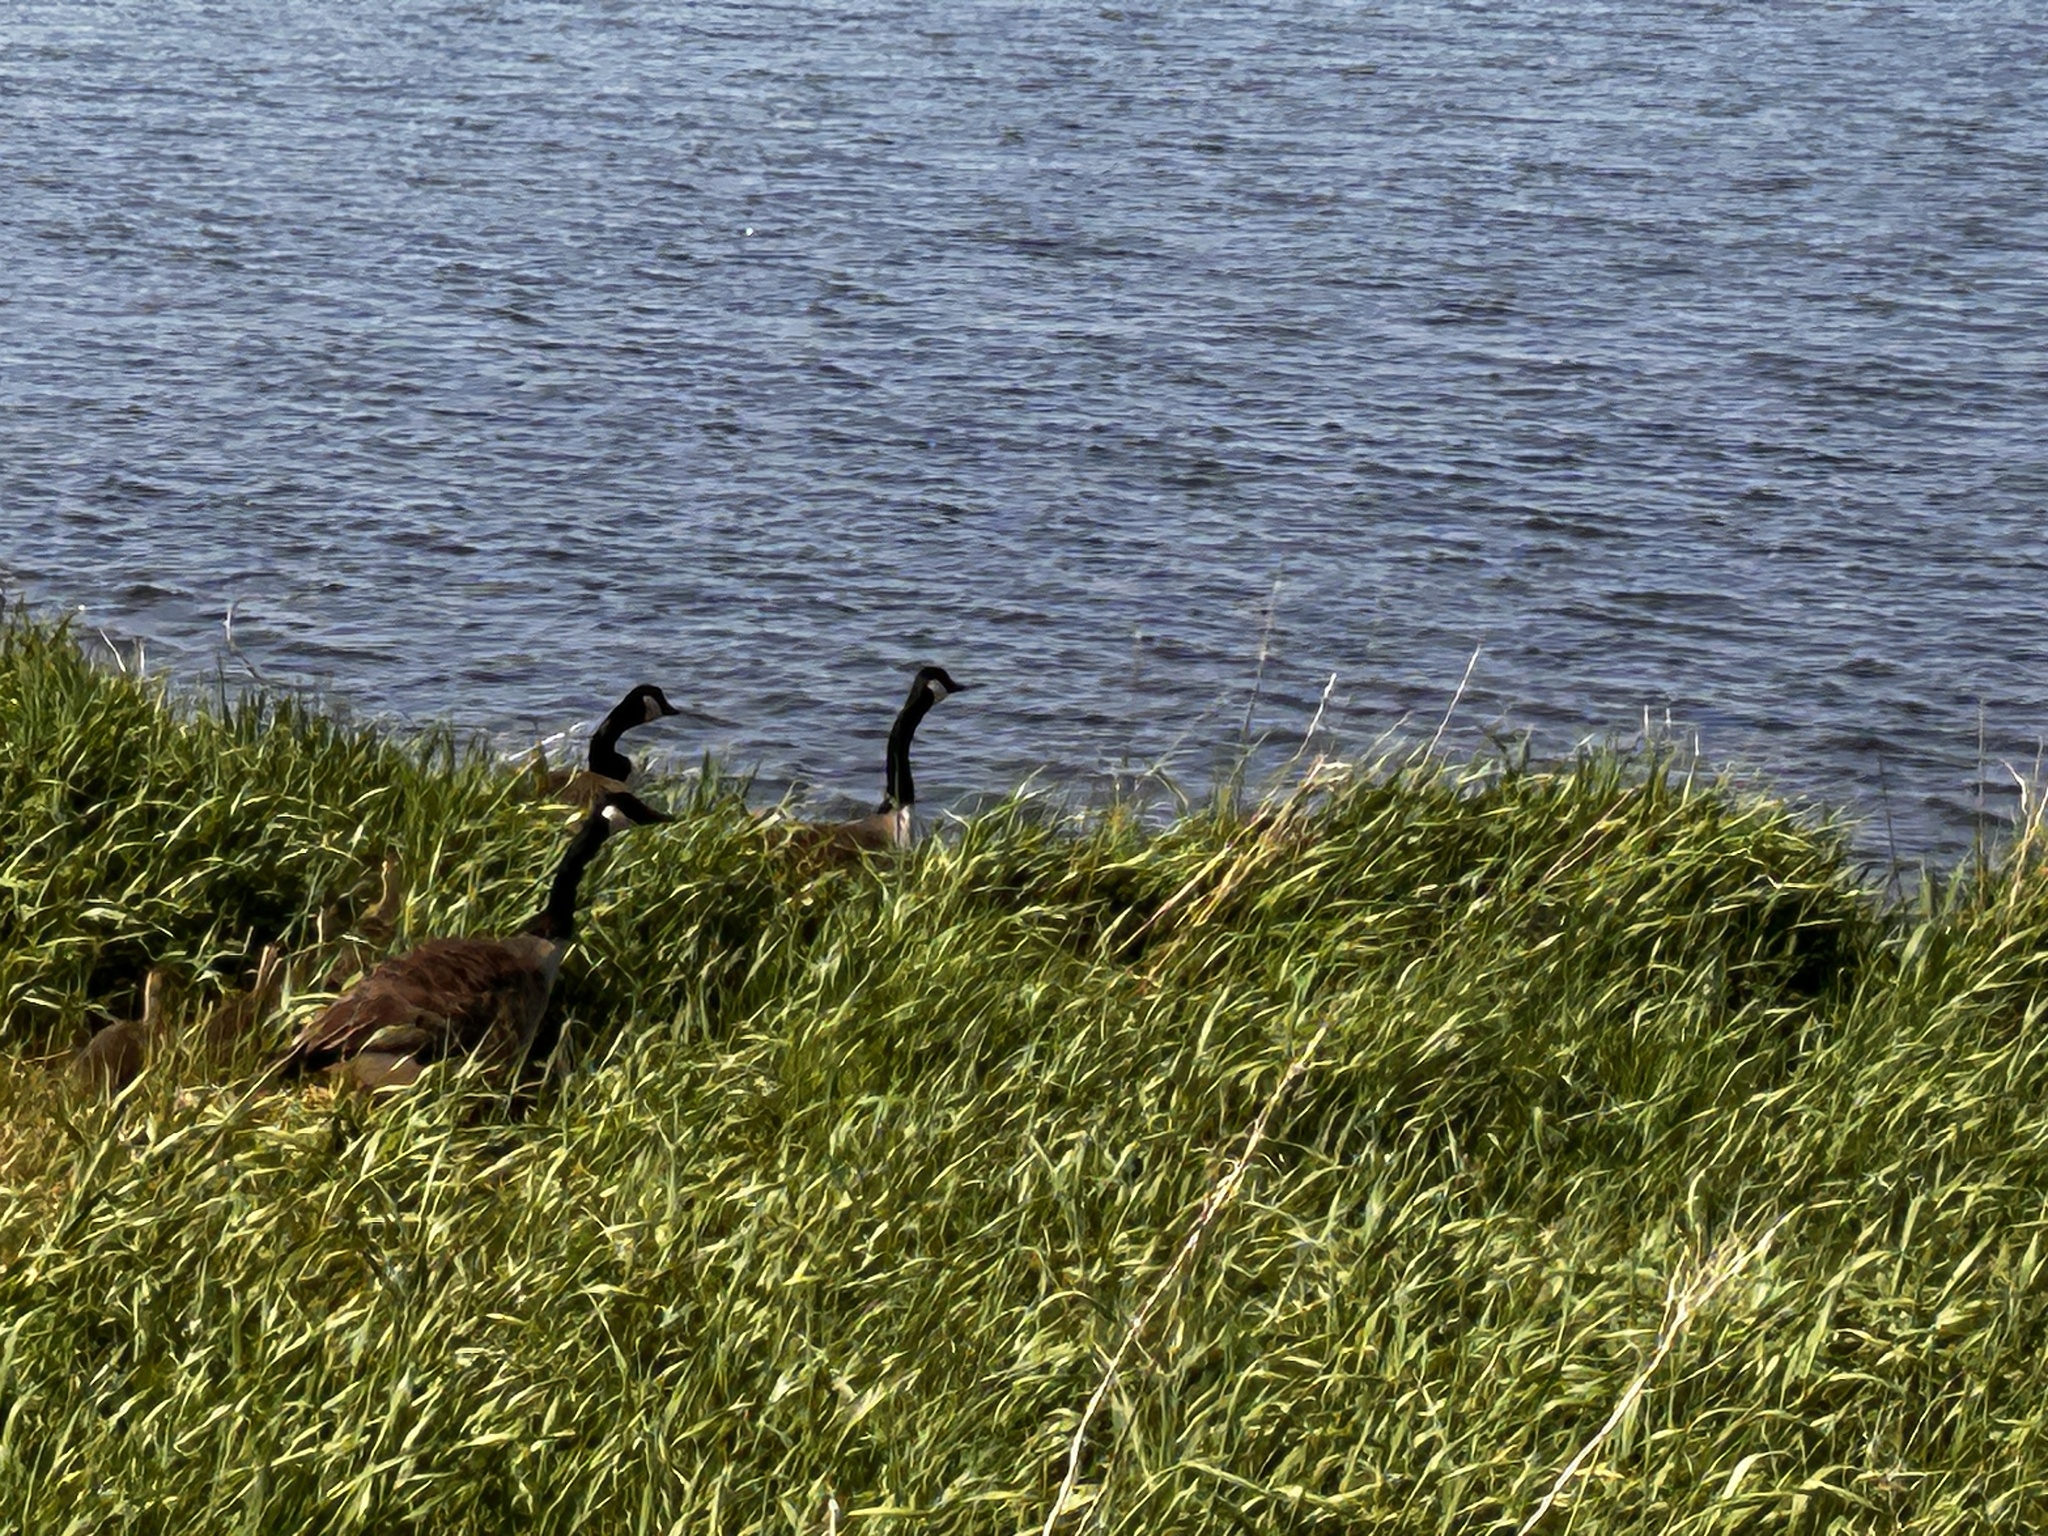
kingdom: Animalia
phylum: Chordata
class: Aves
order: Anseriformes
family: Anatidae
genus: Branta
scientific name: Branta canadensis
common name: Canada goose
